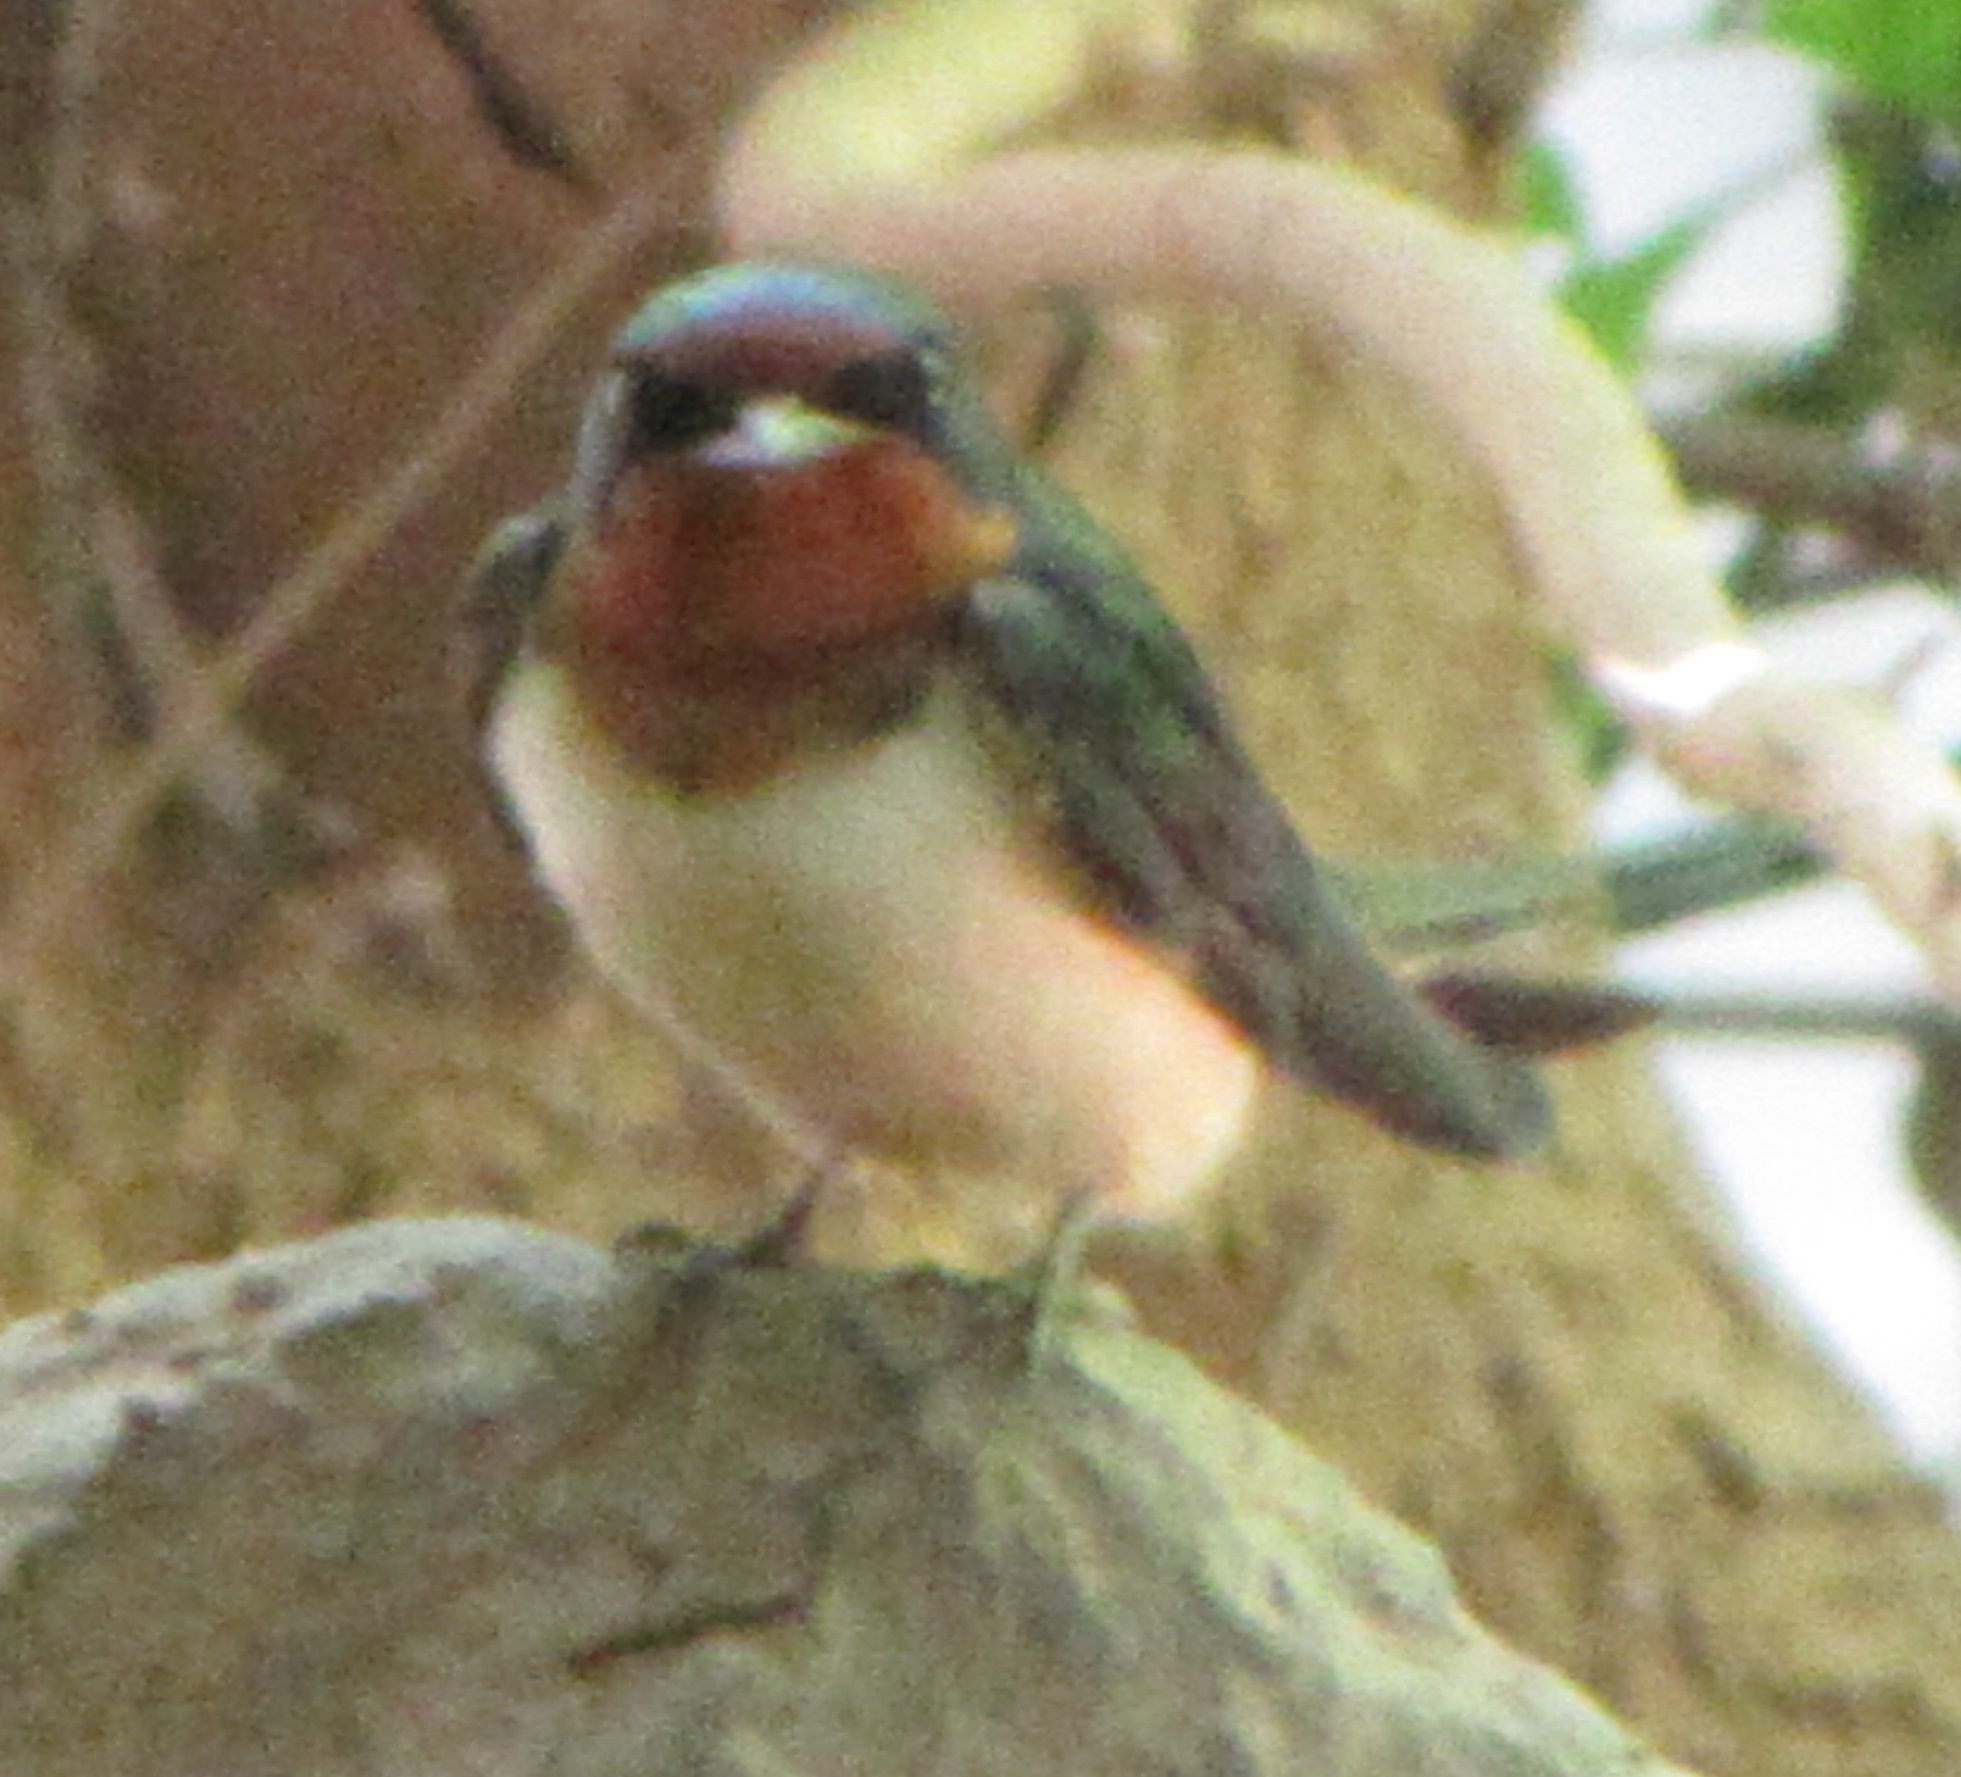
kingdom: Animalia
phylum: Chordata
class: Aves
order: Passeriformes
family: Hirundinidae
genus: Hirundo
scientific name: Hirundo rustica
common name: Barn swallow
